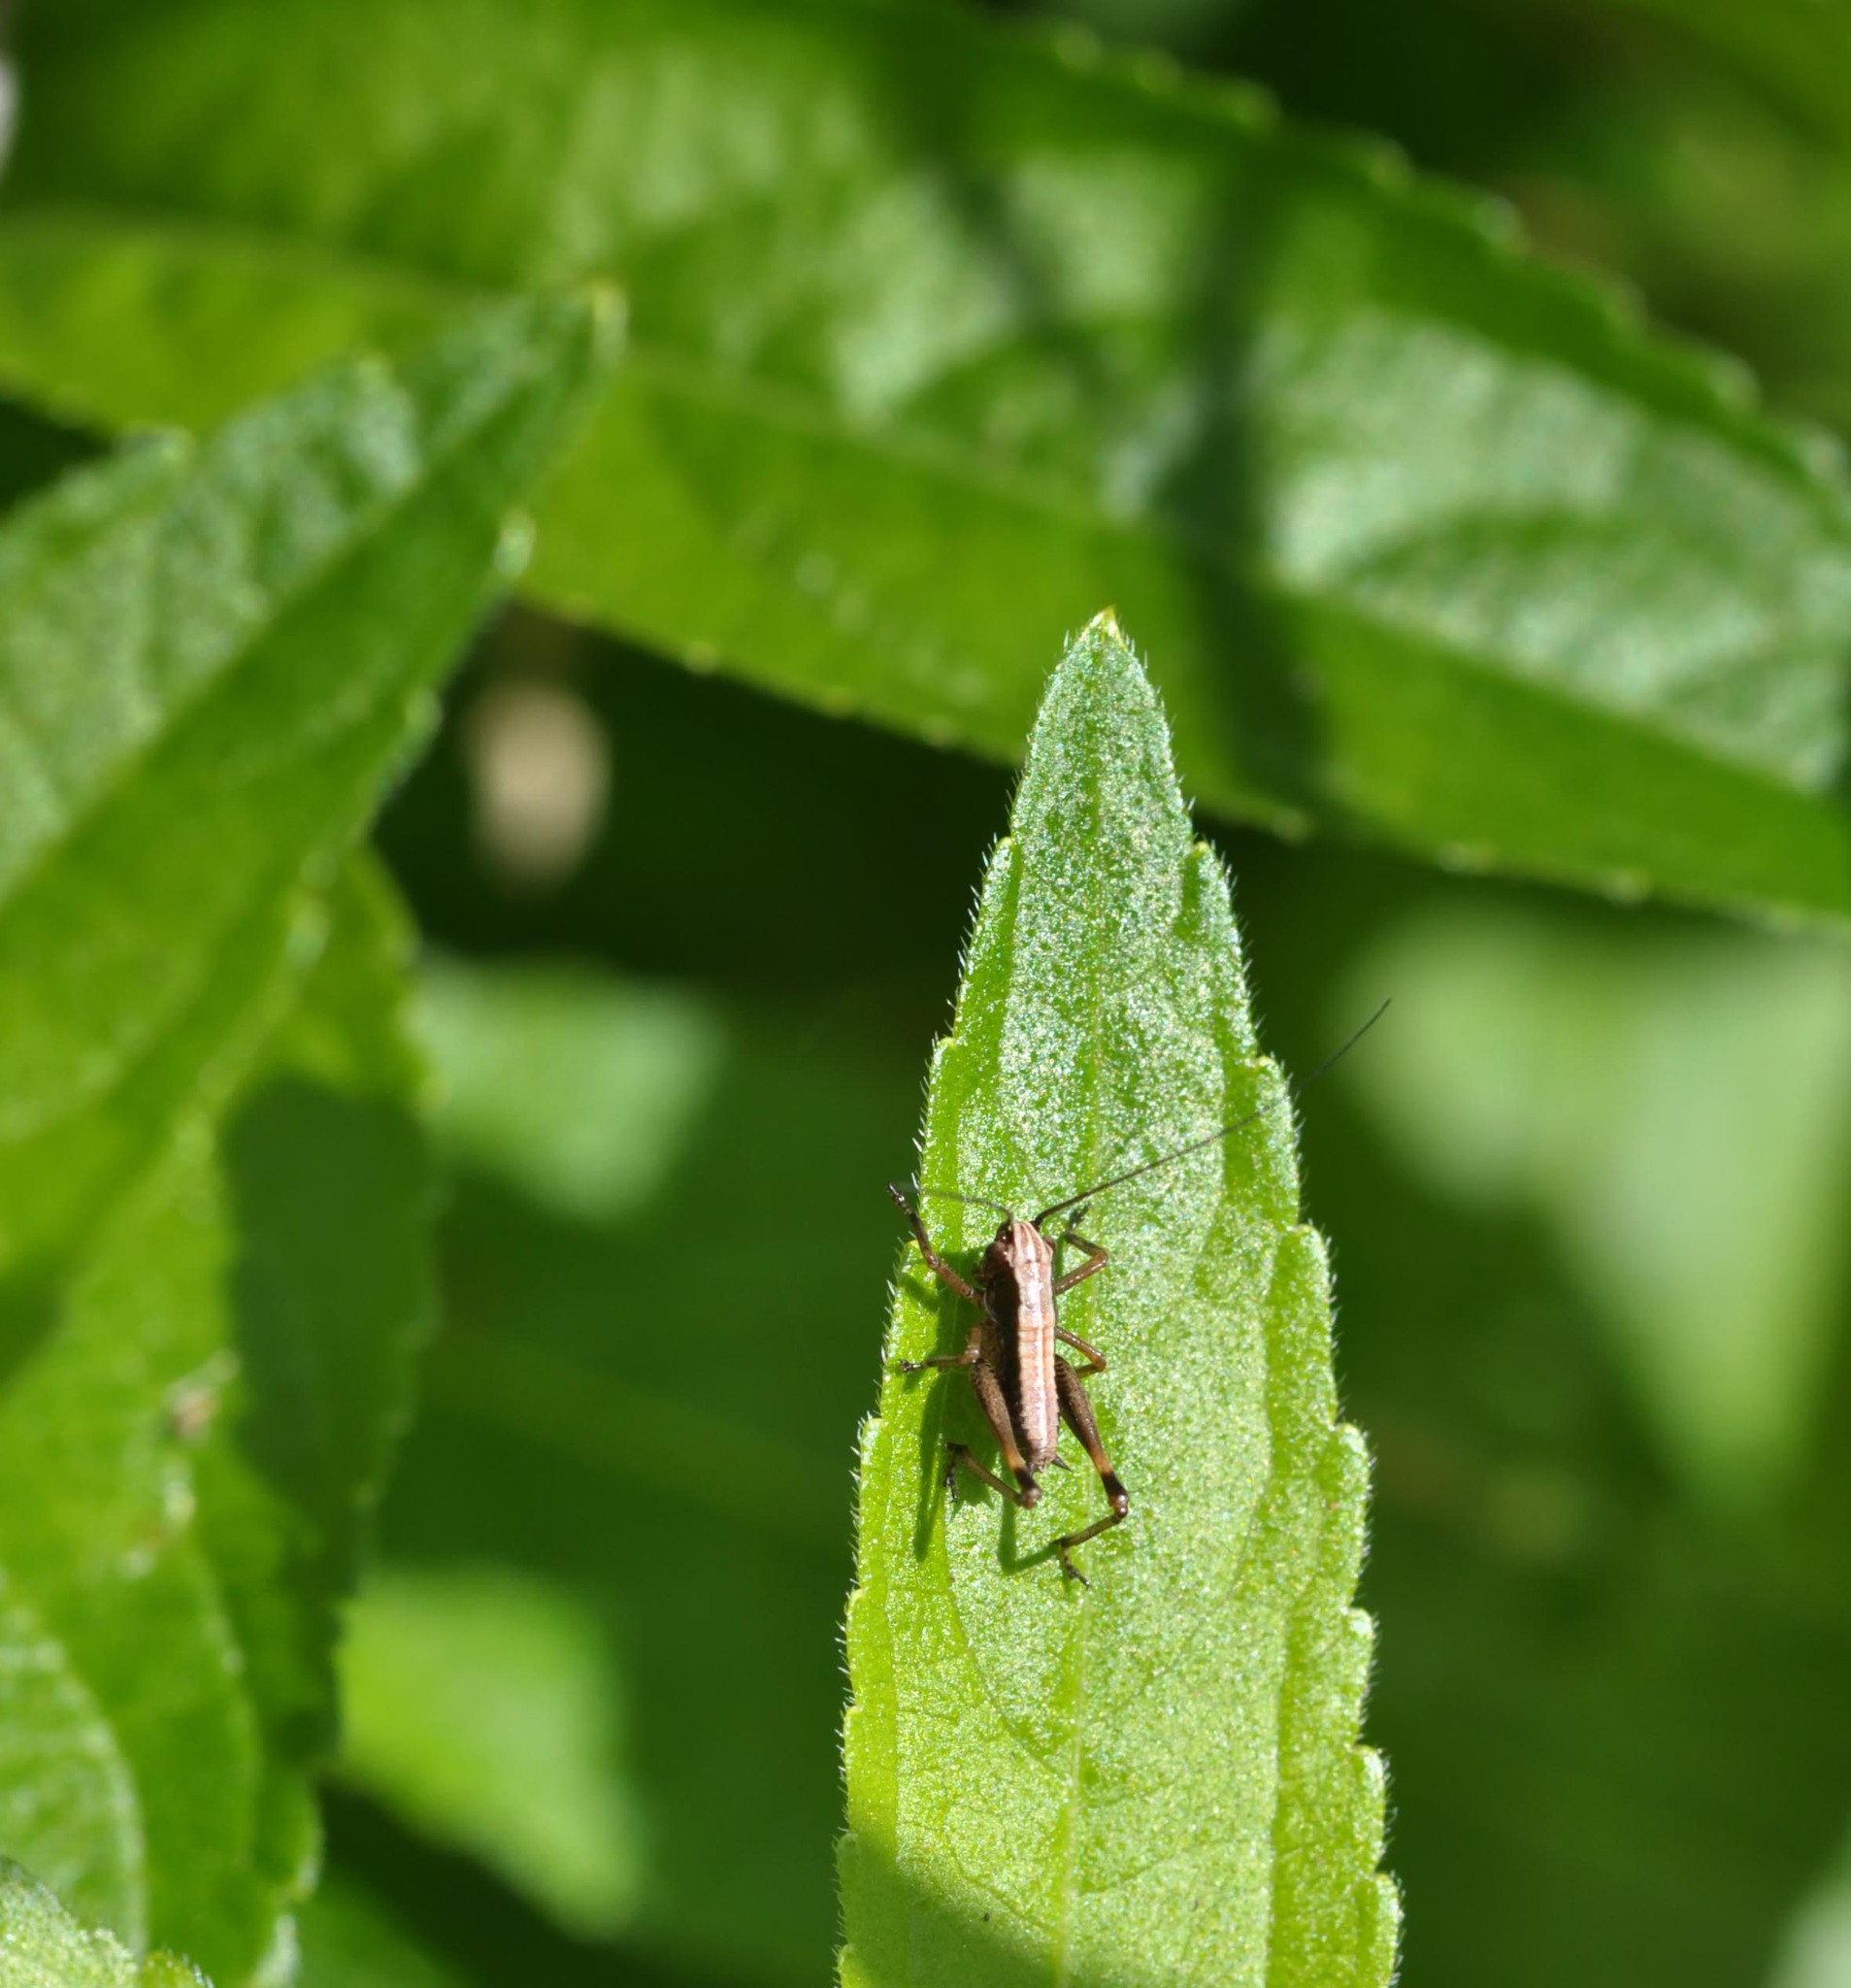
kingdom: Animalia
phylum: Arthropoda
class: Insecta
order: Orthoptera
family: Tettigoniidae
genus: Pholidoptera
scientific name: Pholidoptera griseoaptera
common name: Dark bush-cricket
